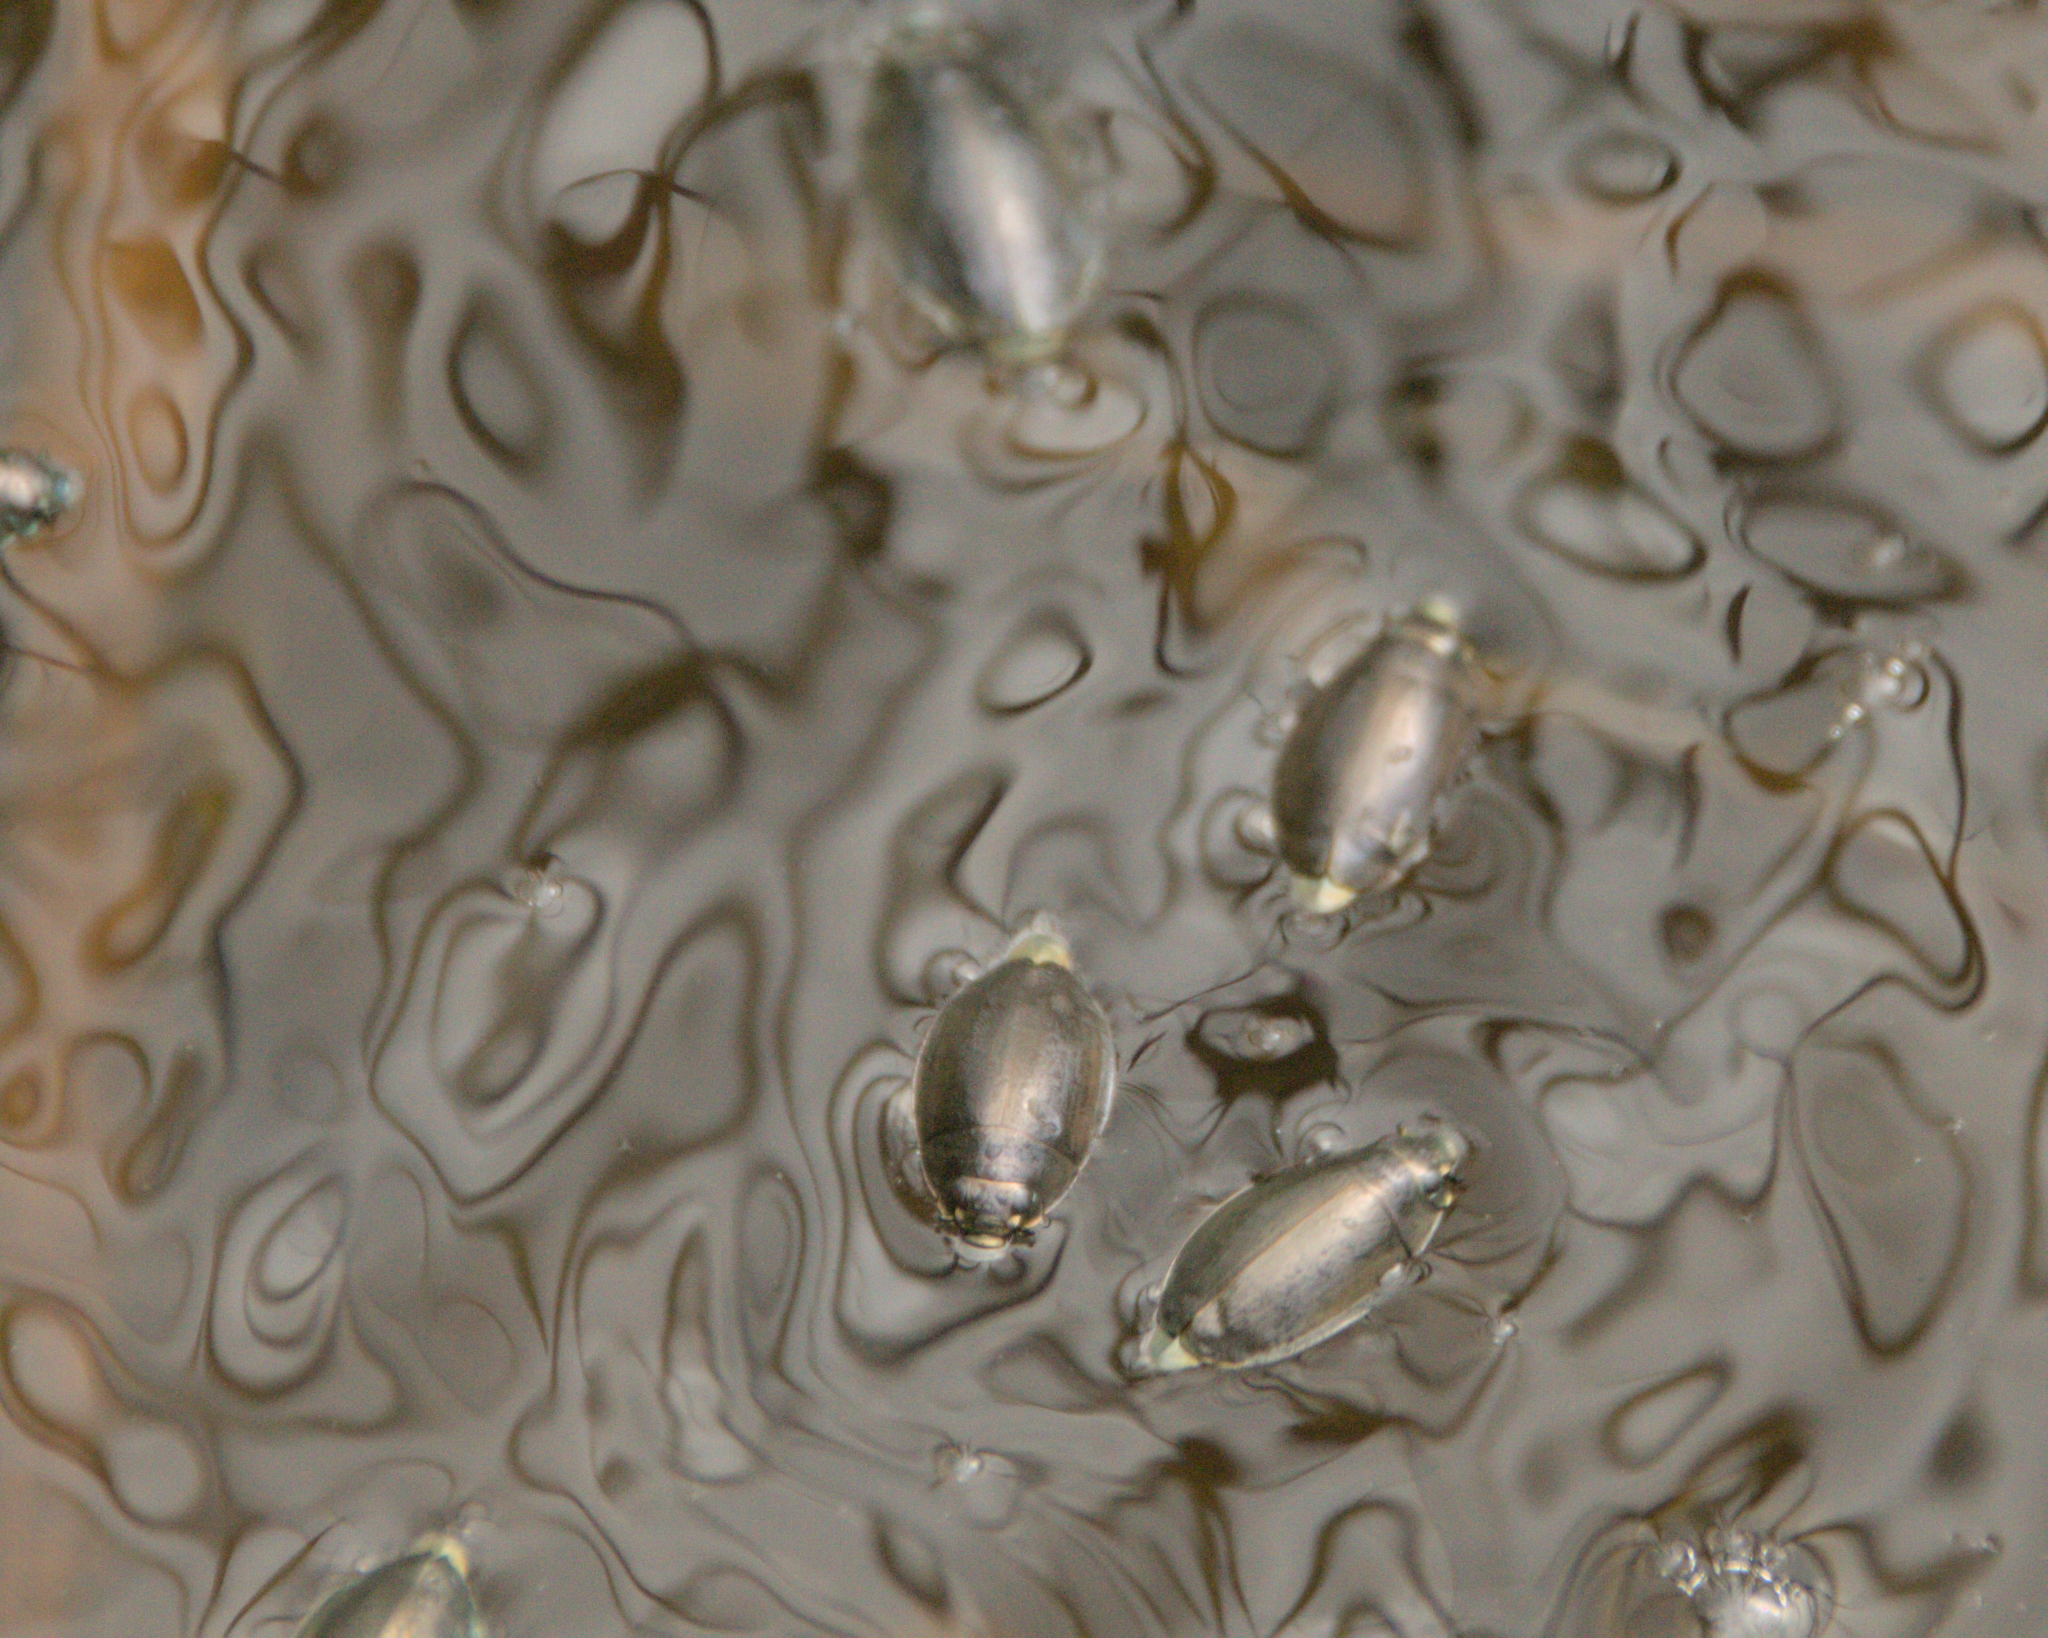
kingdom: Animalia
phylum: Arthropoda
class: Insecta
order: Coleoptera
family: Gyrinidae
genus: Dineutus
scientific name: Dineutus
